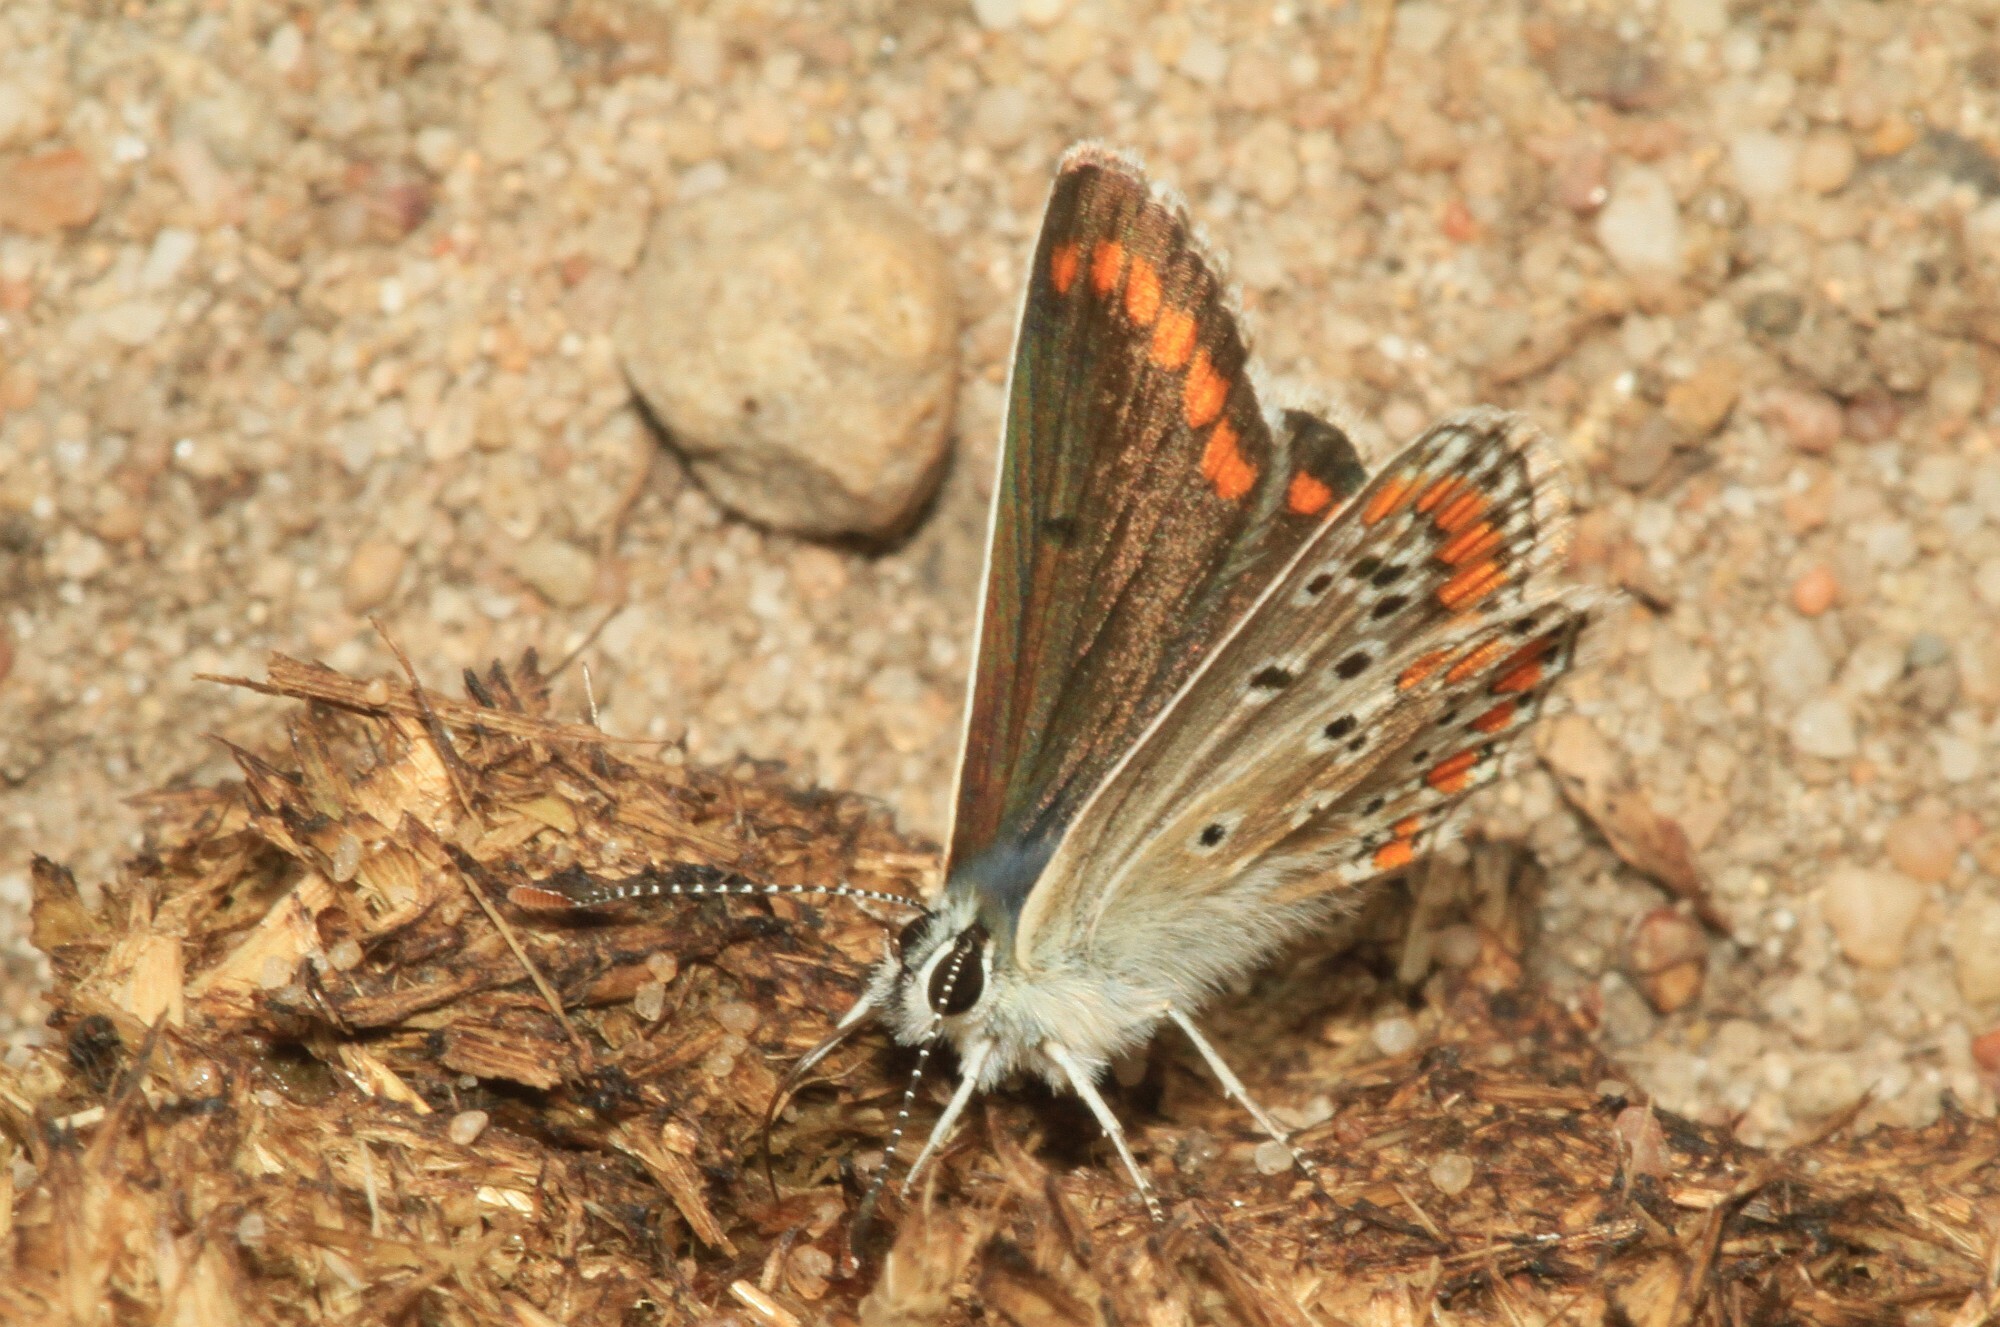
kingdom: Animalia
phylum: Arthropoda
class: Insecta
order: Lepidoptera
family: Lycaenidae
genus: Aricia
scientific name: Aricia agestis
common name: Brown argus
